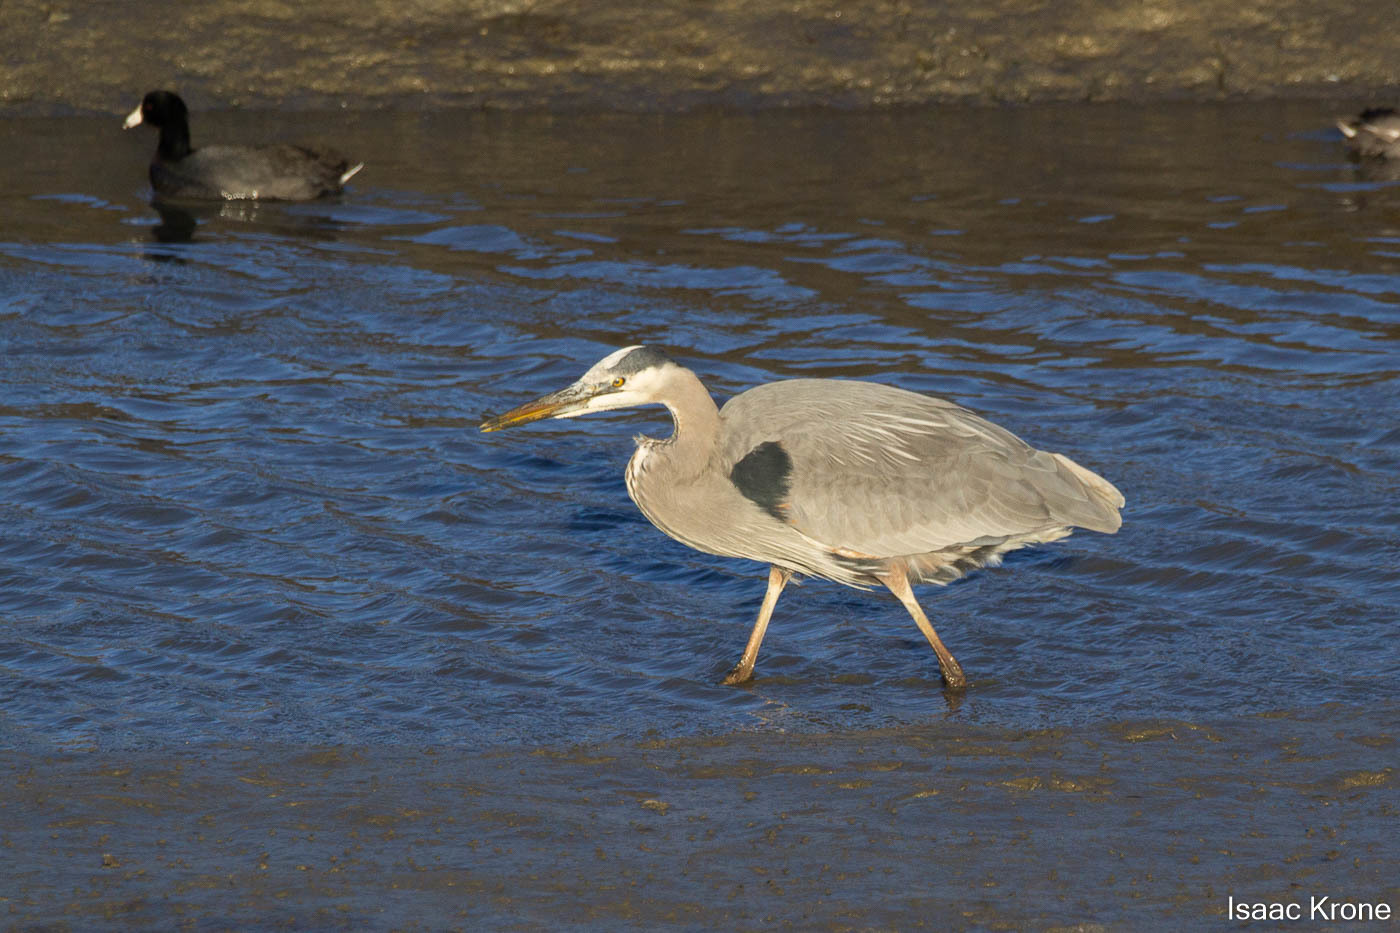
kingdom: Animalia
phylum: Chordata
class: Aves
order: Pelecaniformes
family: Ardeidae
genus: Ardea
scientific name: Ardea herodias
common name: Great blue heron
